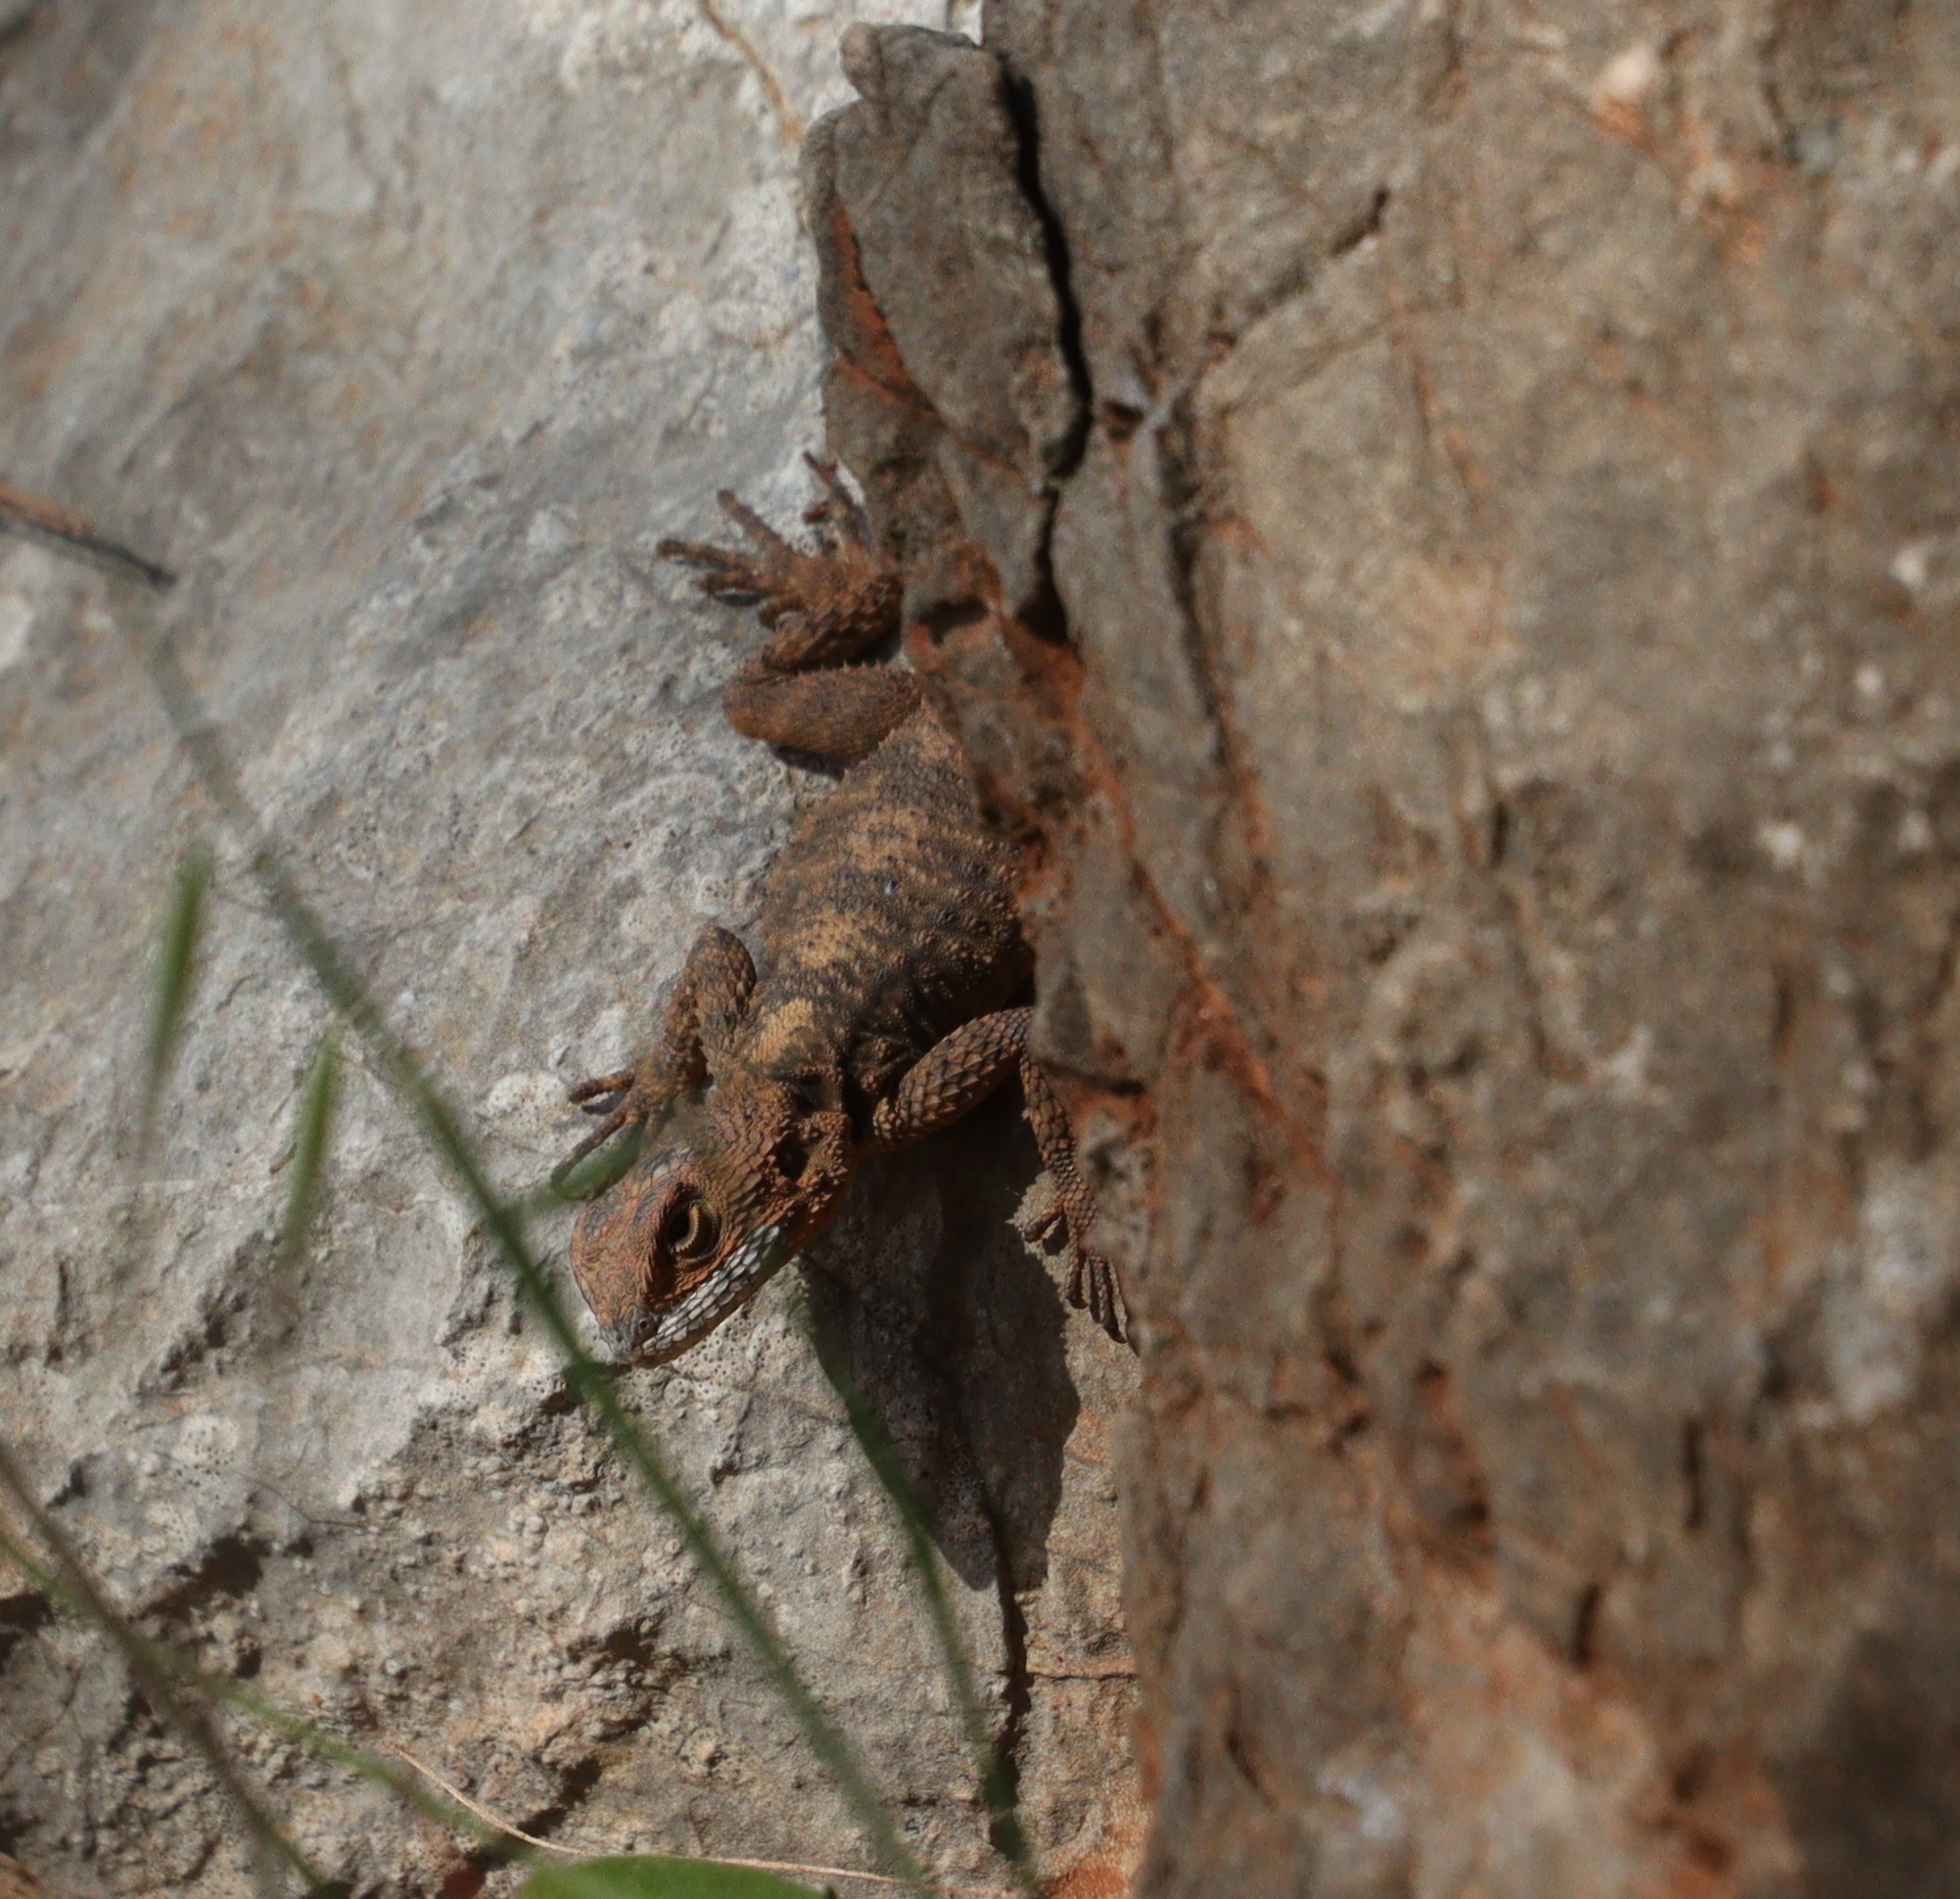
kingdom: Animalia
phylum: Chordata
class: Squamata
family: Agamidae
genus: Stellagama
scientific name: Stellagama stellio
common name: Starred agama
